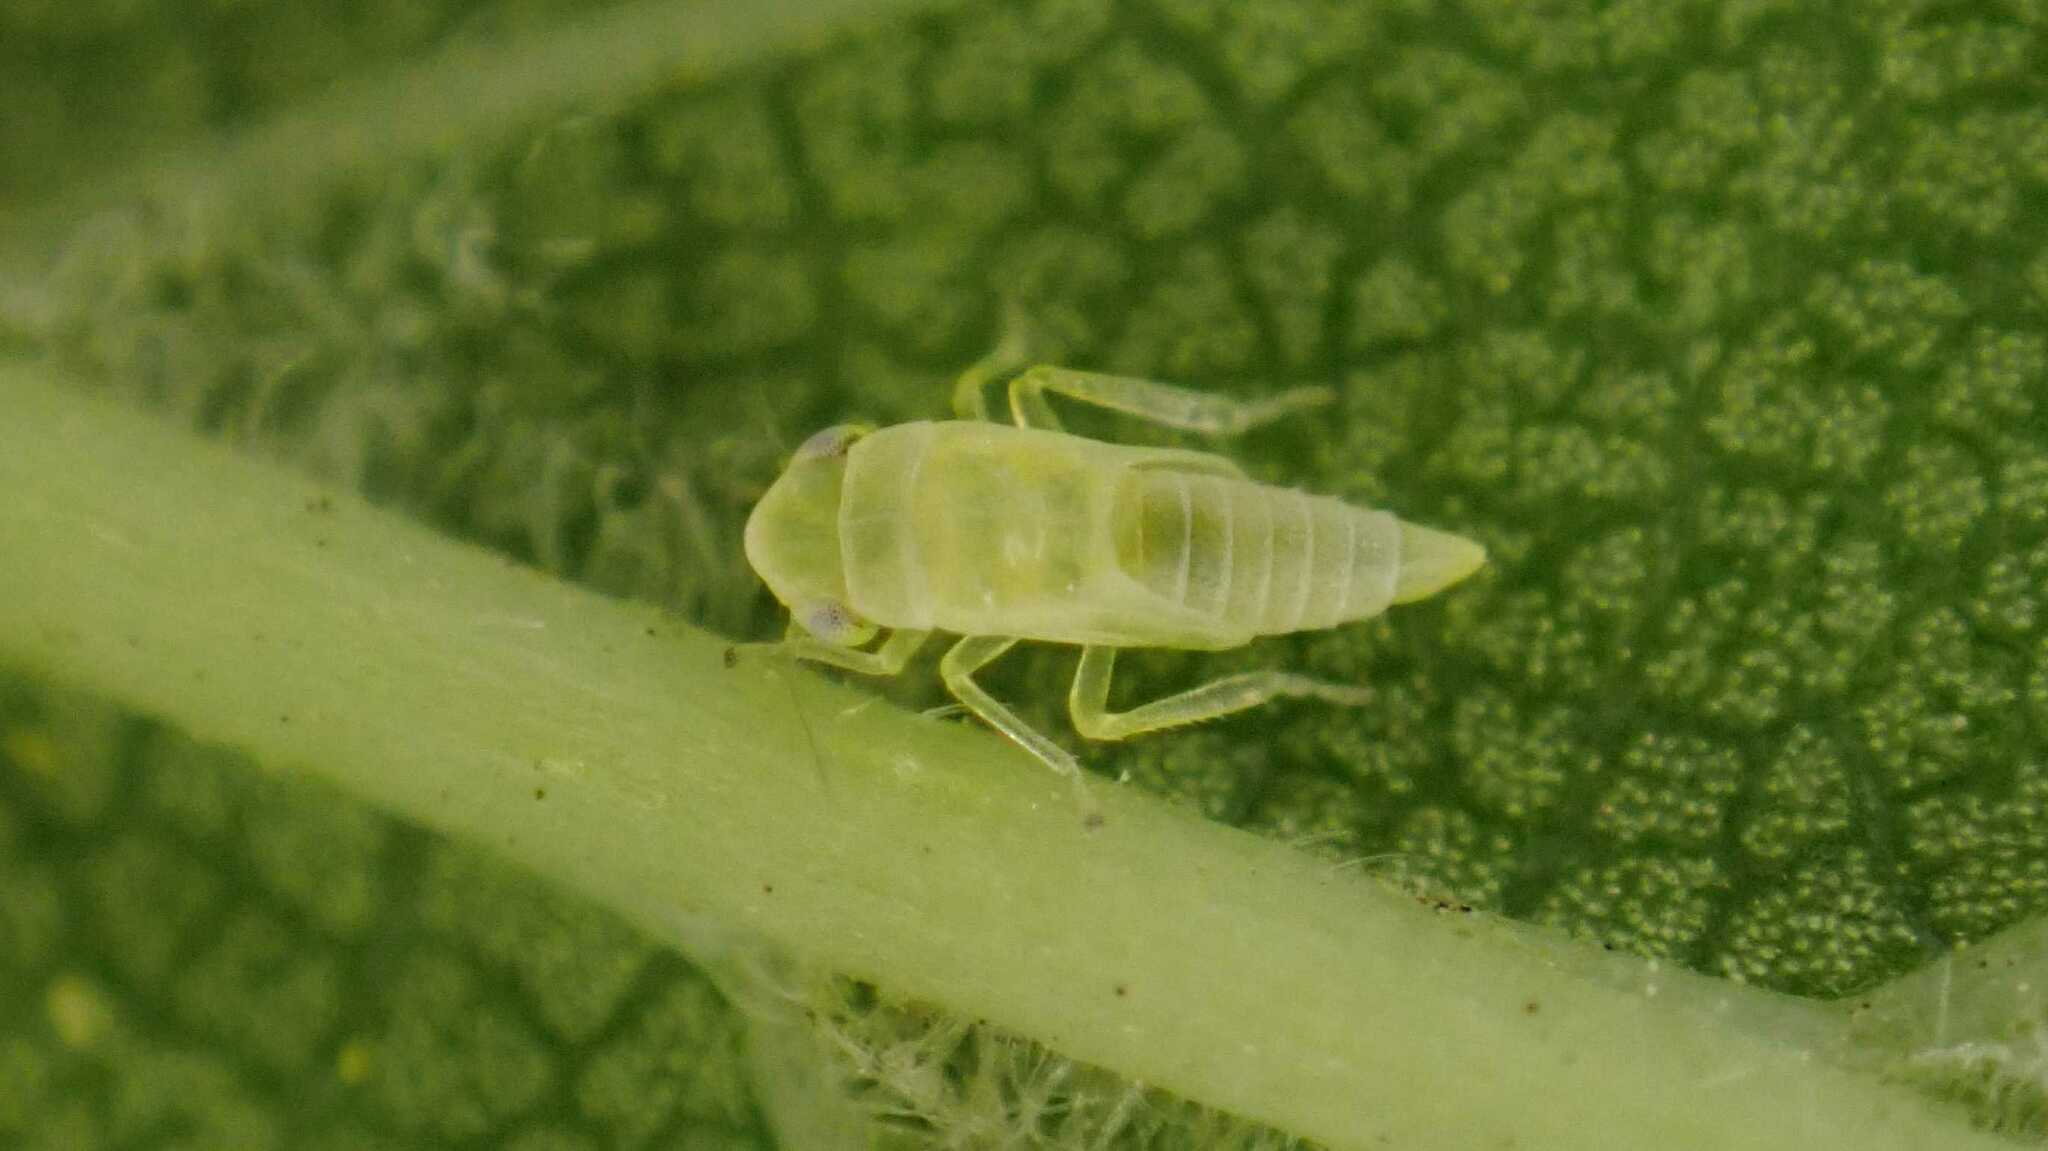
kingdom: Animalia
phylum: Arthropoda
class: Insecta
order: Hemiptera
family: Cicadellidae
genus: Tautoneura
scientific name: Tautoneura polymitusa
